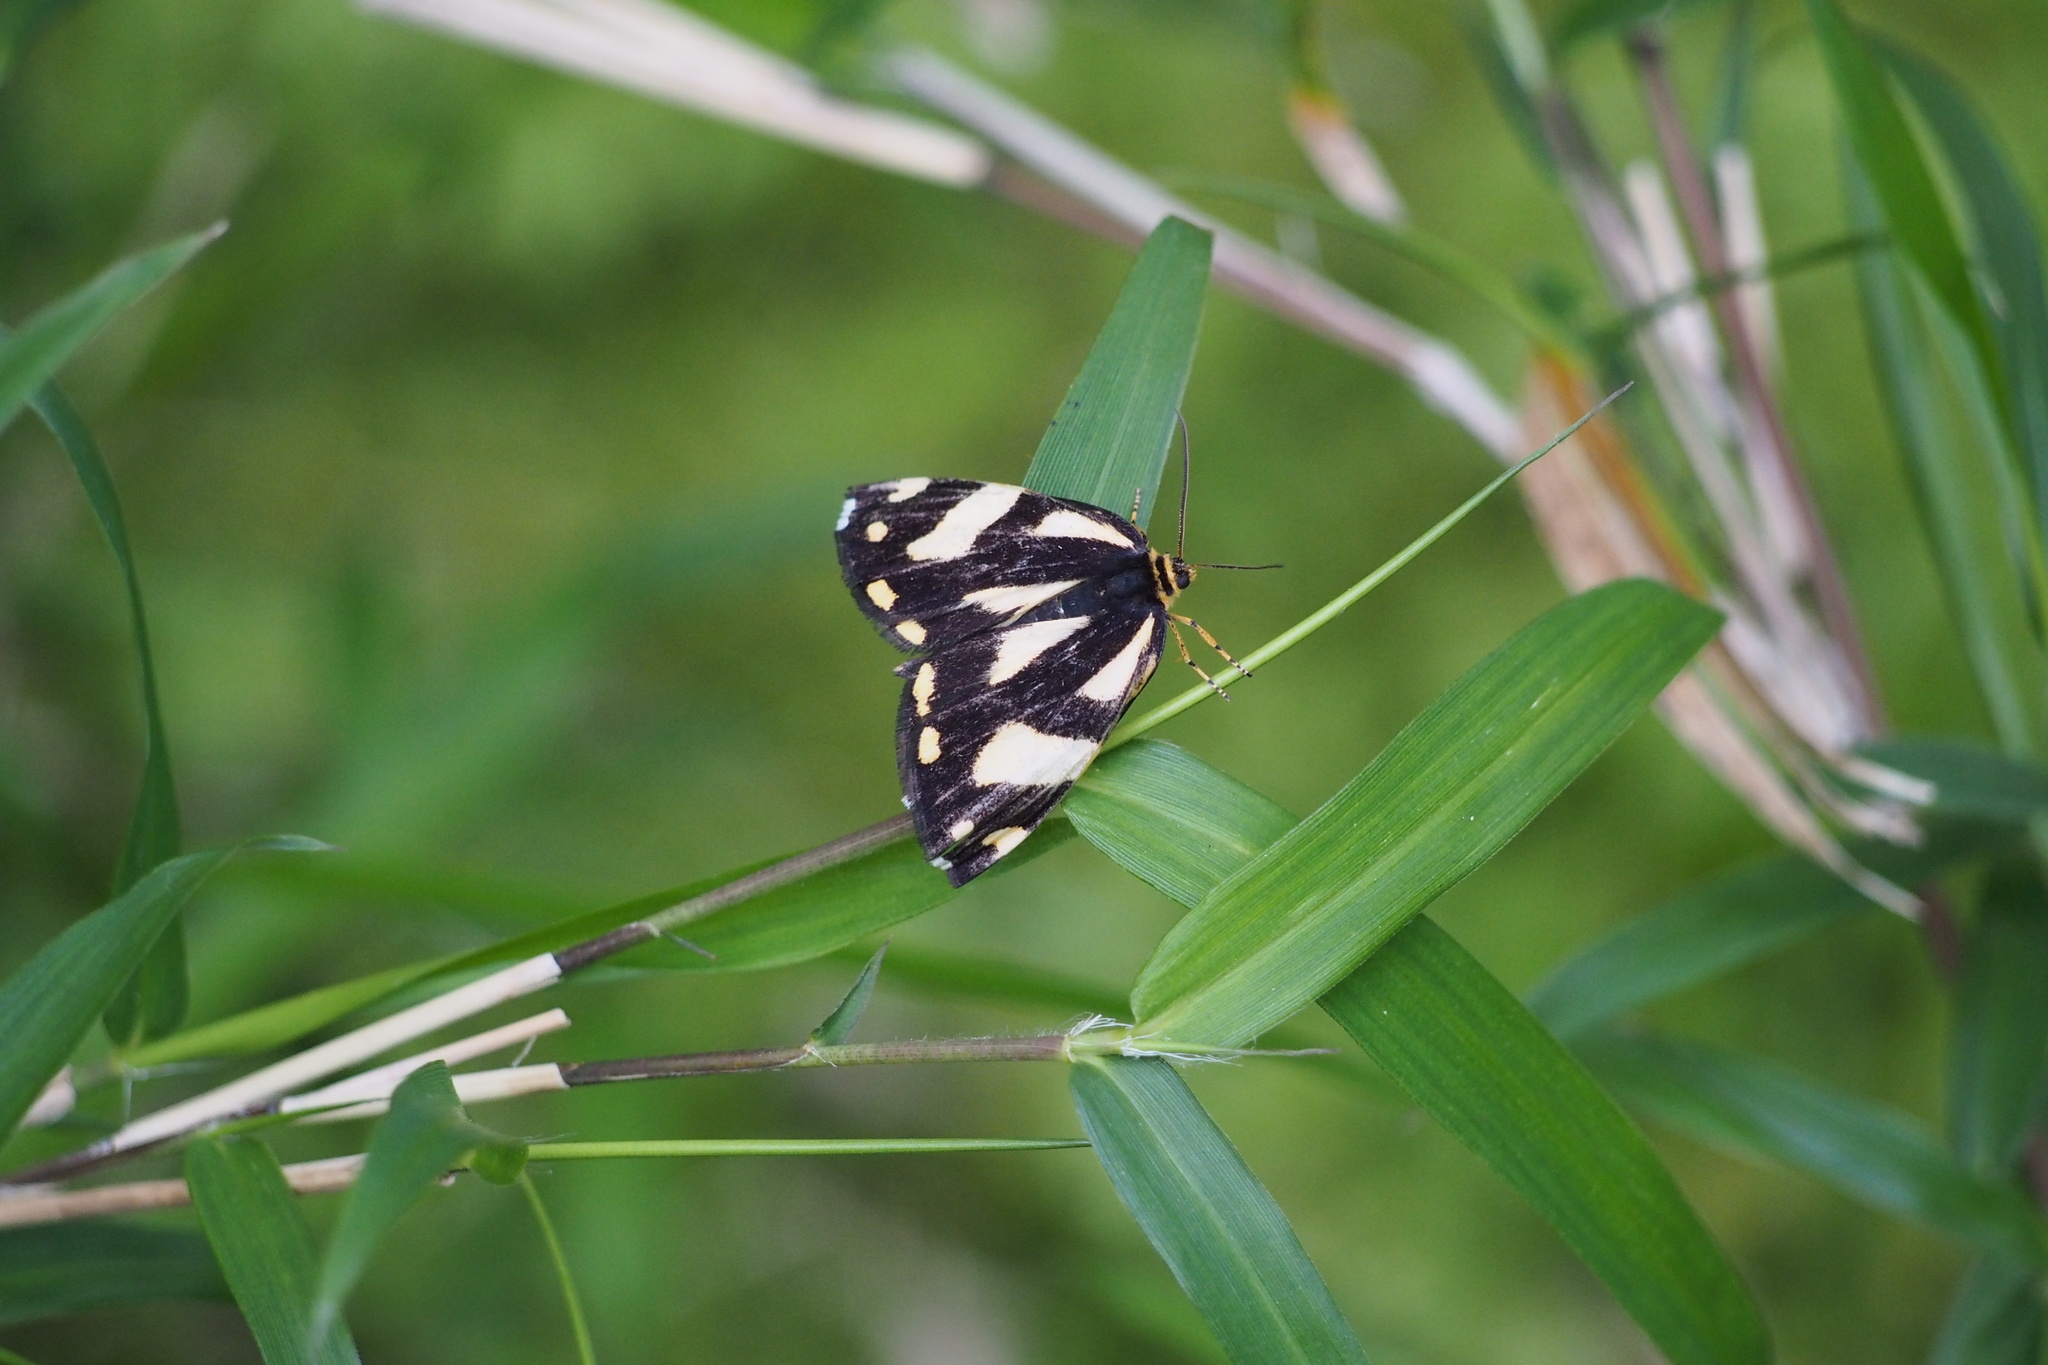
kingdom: Animalia
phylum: Arthropoda
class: Insecta
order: Lepidoptera
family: Epicopeiidae
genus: Psychostrophia
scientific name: Psychostrophia melanargia
